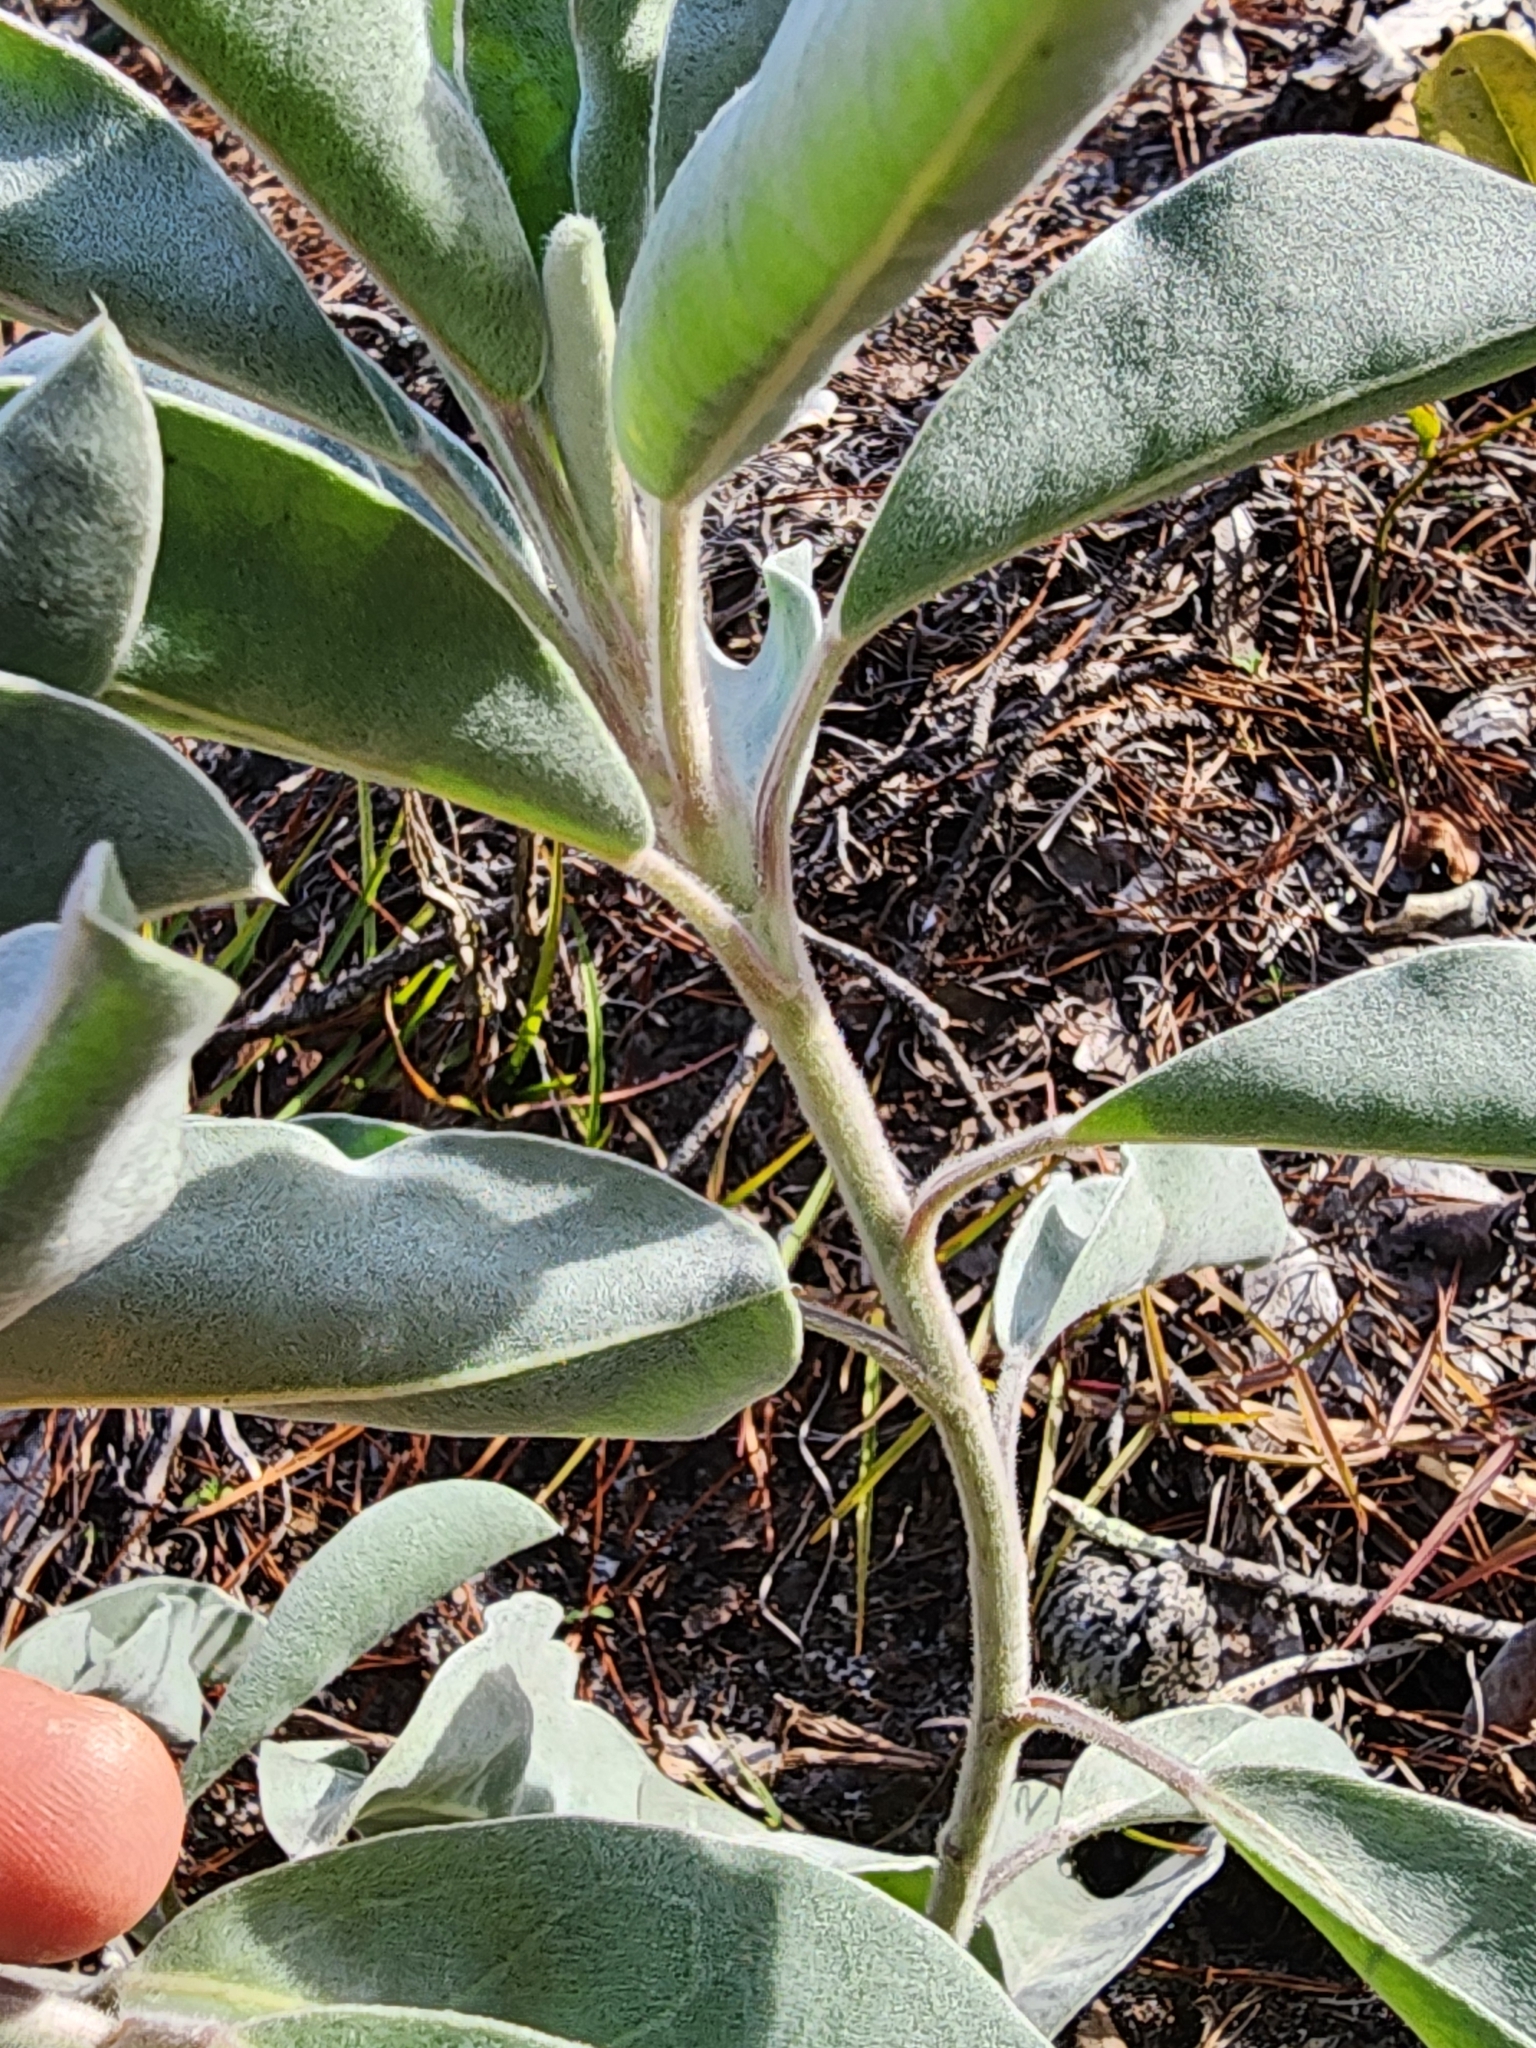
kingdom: Plantae
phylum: Tracheophyta
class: Magnoliopsida
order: Fabales
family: Fabaceae
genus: Lupinus
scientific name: Lupinus westianus
